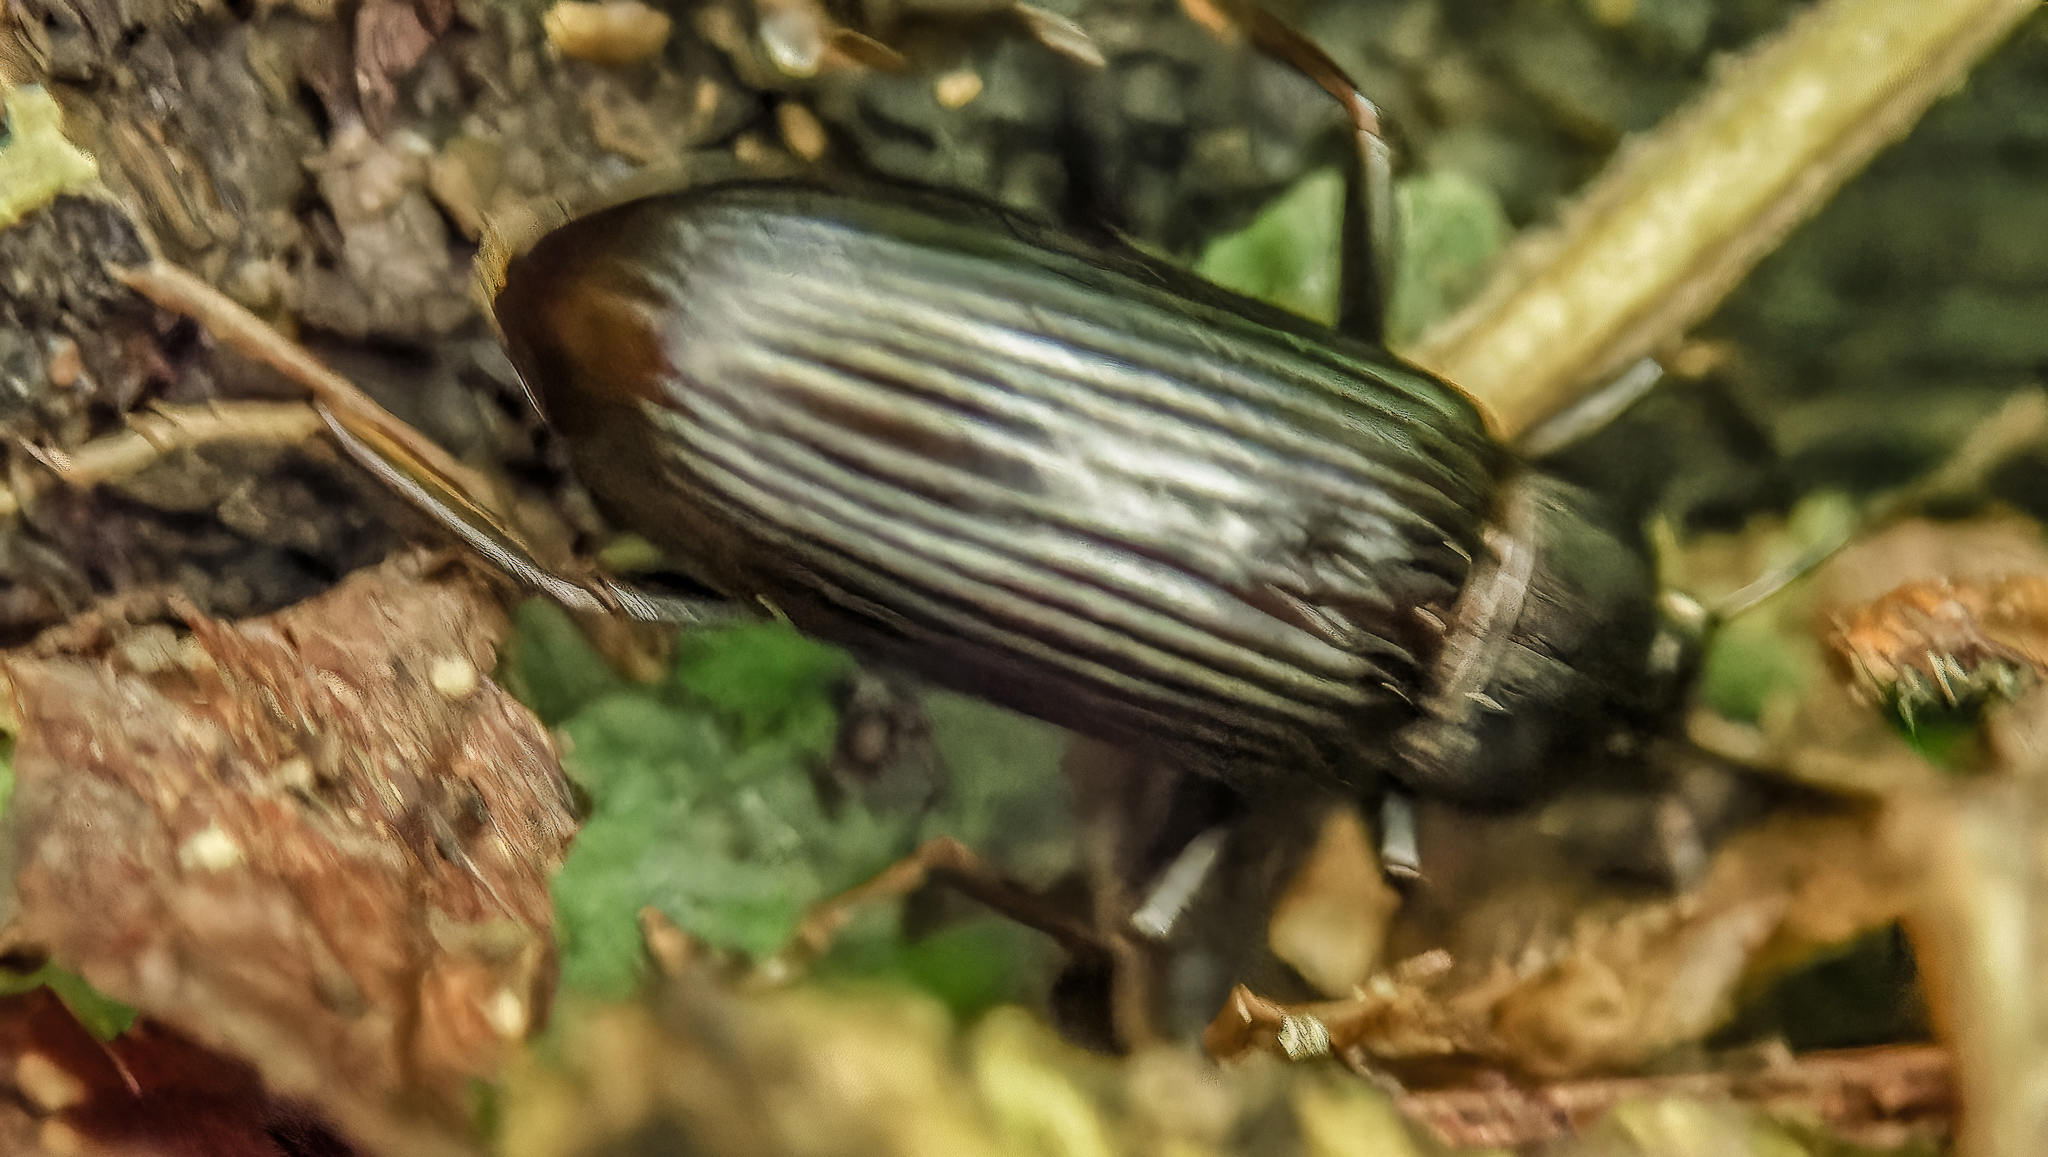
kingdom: Animalia
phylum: Arthropoda
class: Insecta
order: Coleoptera
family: Tenebrionidae
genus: Strongylium
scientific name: Strongylium terminatum
